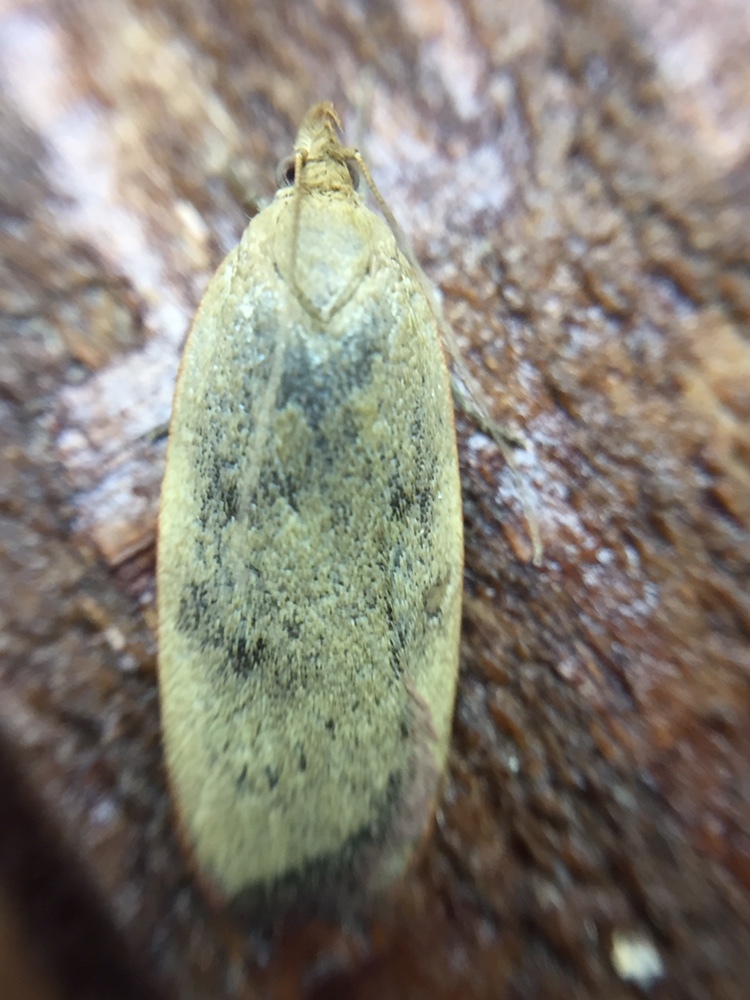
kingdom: Animalia
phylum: Arthropoda
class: Insecta
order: Lepidoptera
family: Depressariidae
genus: Phaeosaces
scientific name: Phaeosaces coarctatella
